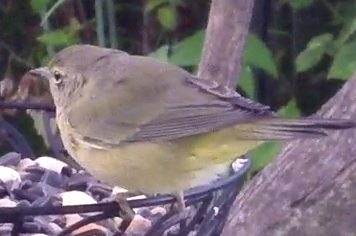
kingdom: Animalia
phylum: Chordata
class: Aves
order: Passeriformes
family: Parulidae
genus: Leiothlypis
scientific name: Leiothlypis celata
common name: Orange-crowned warbler
